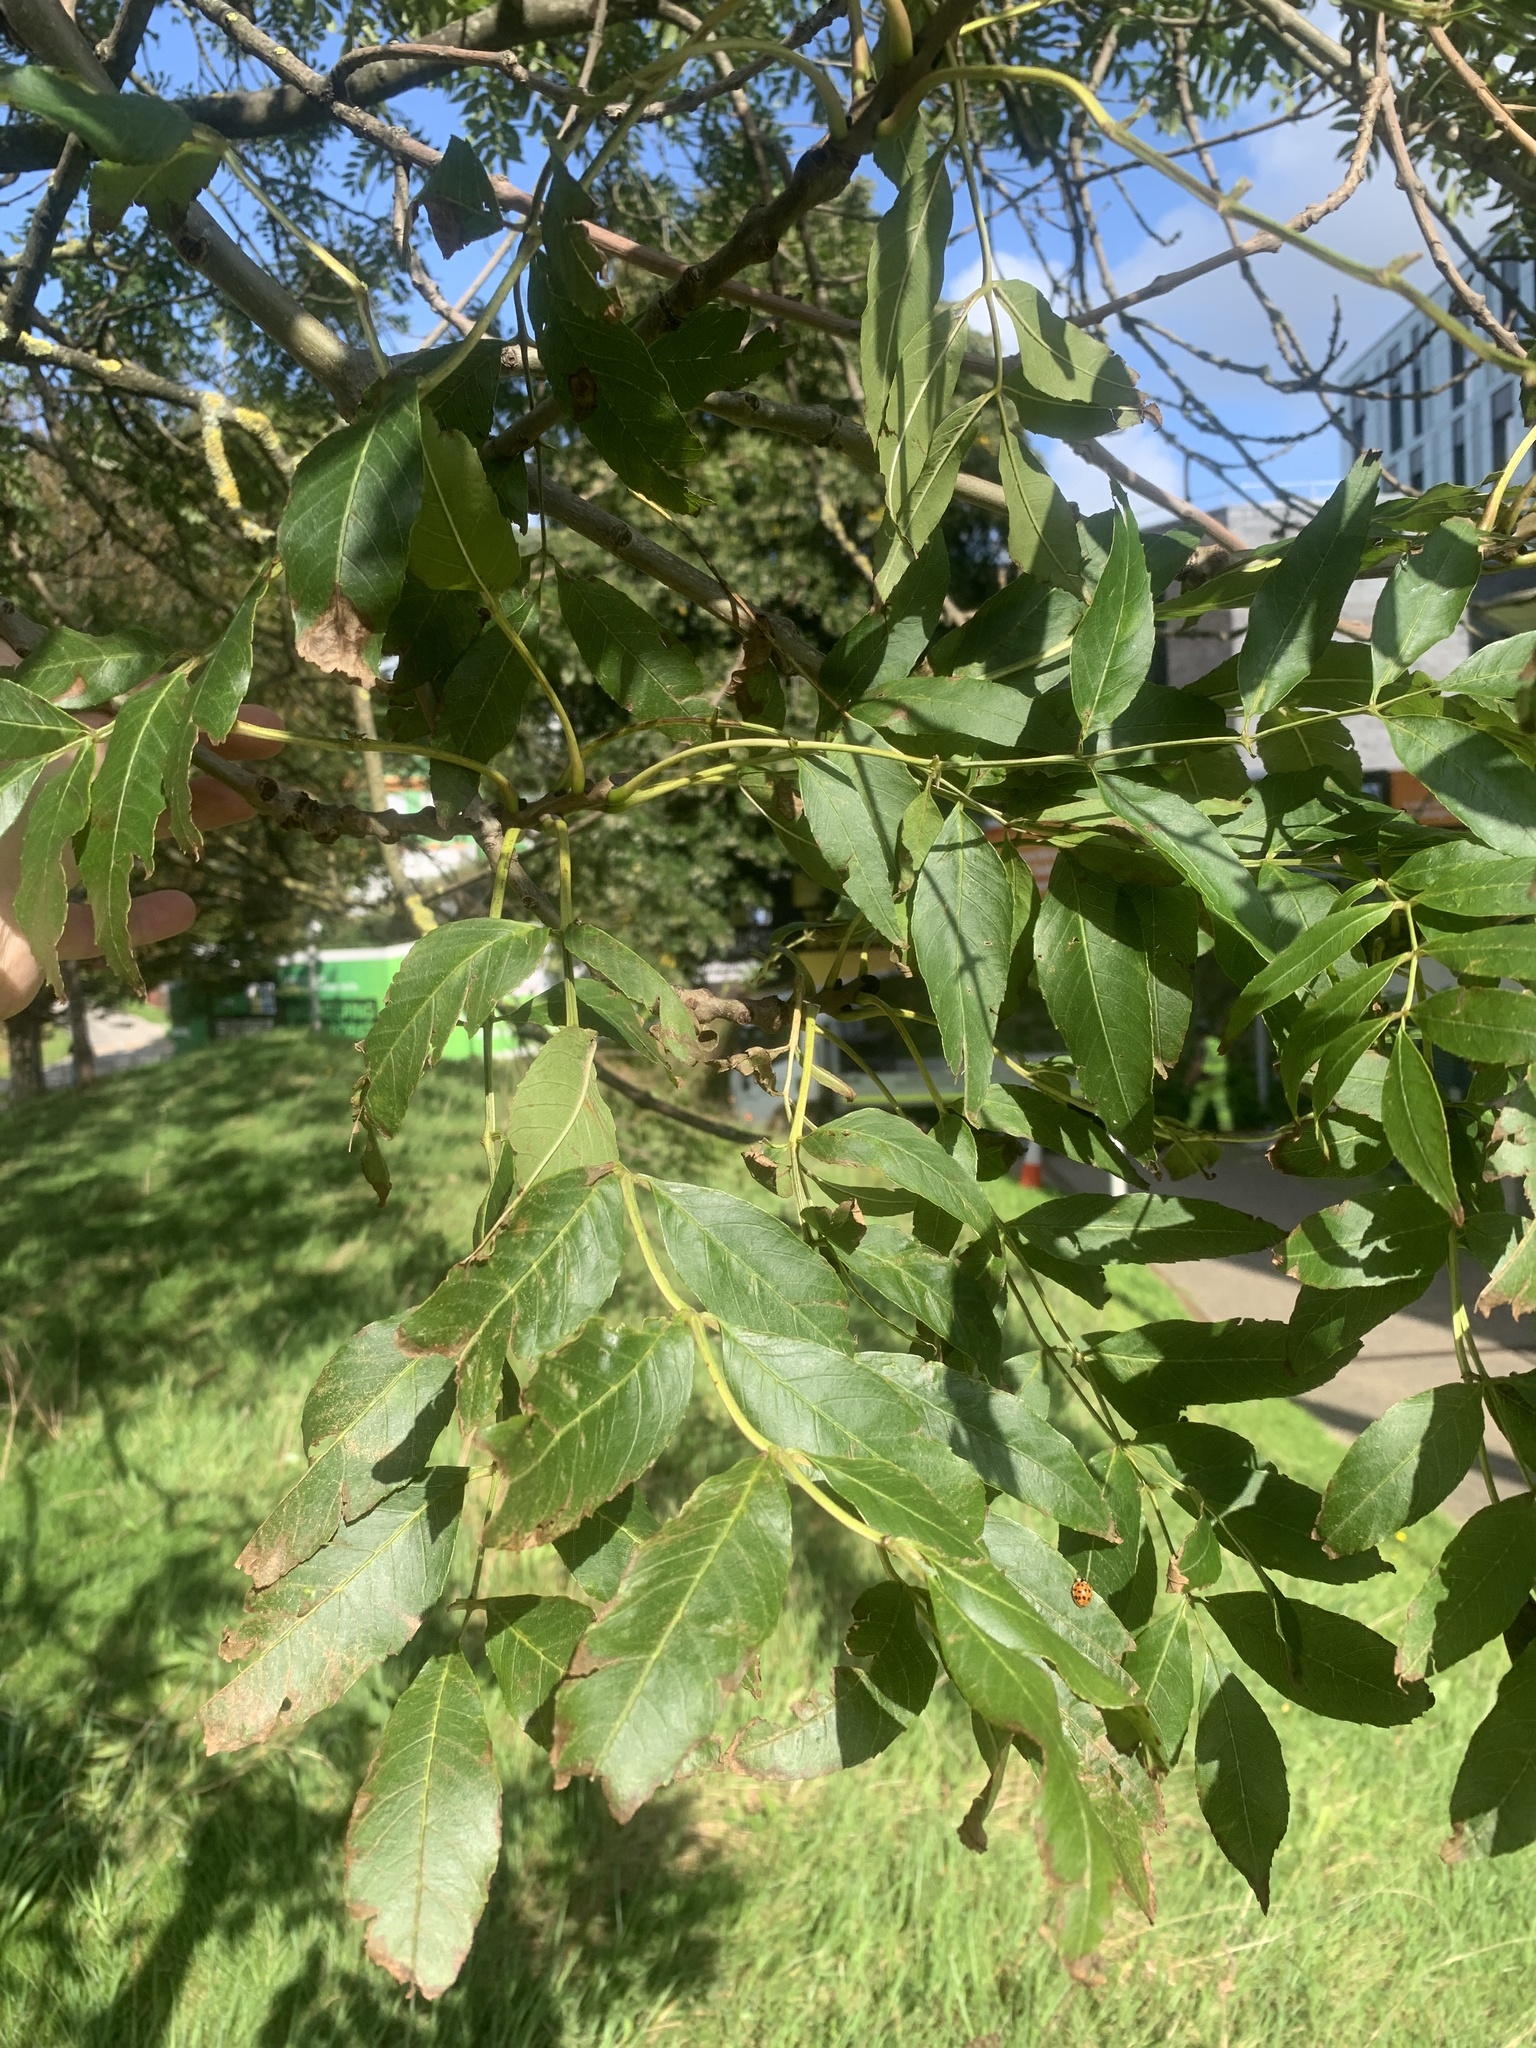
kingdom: Plantae
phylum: Tracheophyta
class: Magnoliopsida
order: Lamiales
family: Oleaceae
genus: Fraxinus
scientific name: Fraxinus excelsior
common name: European ash
